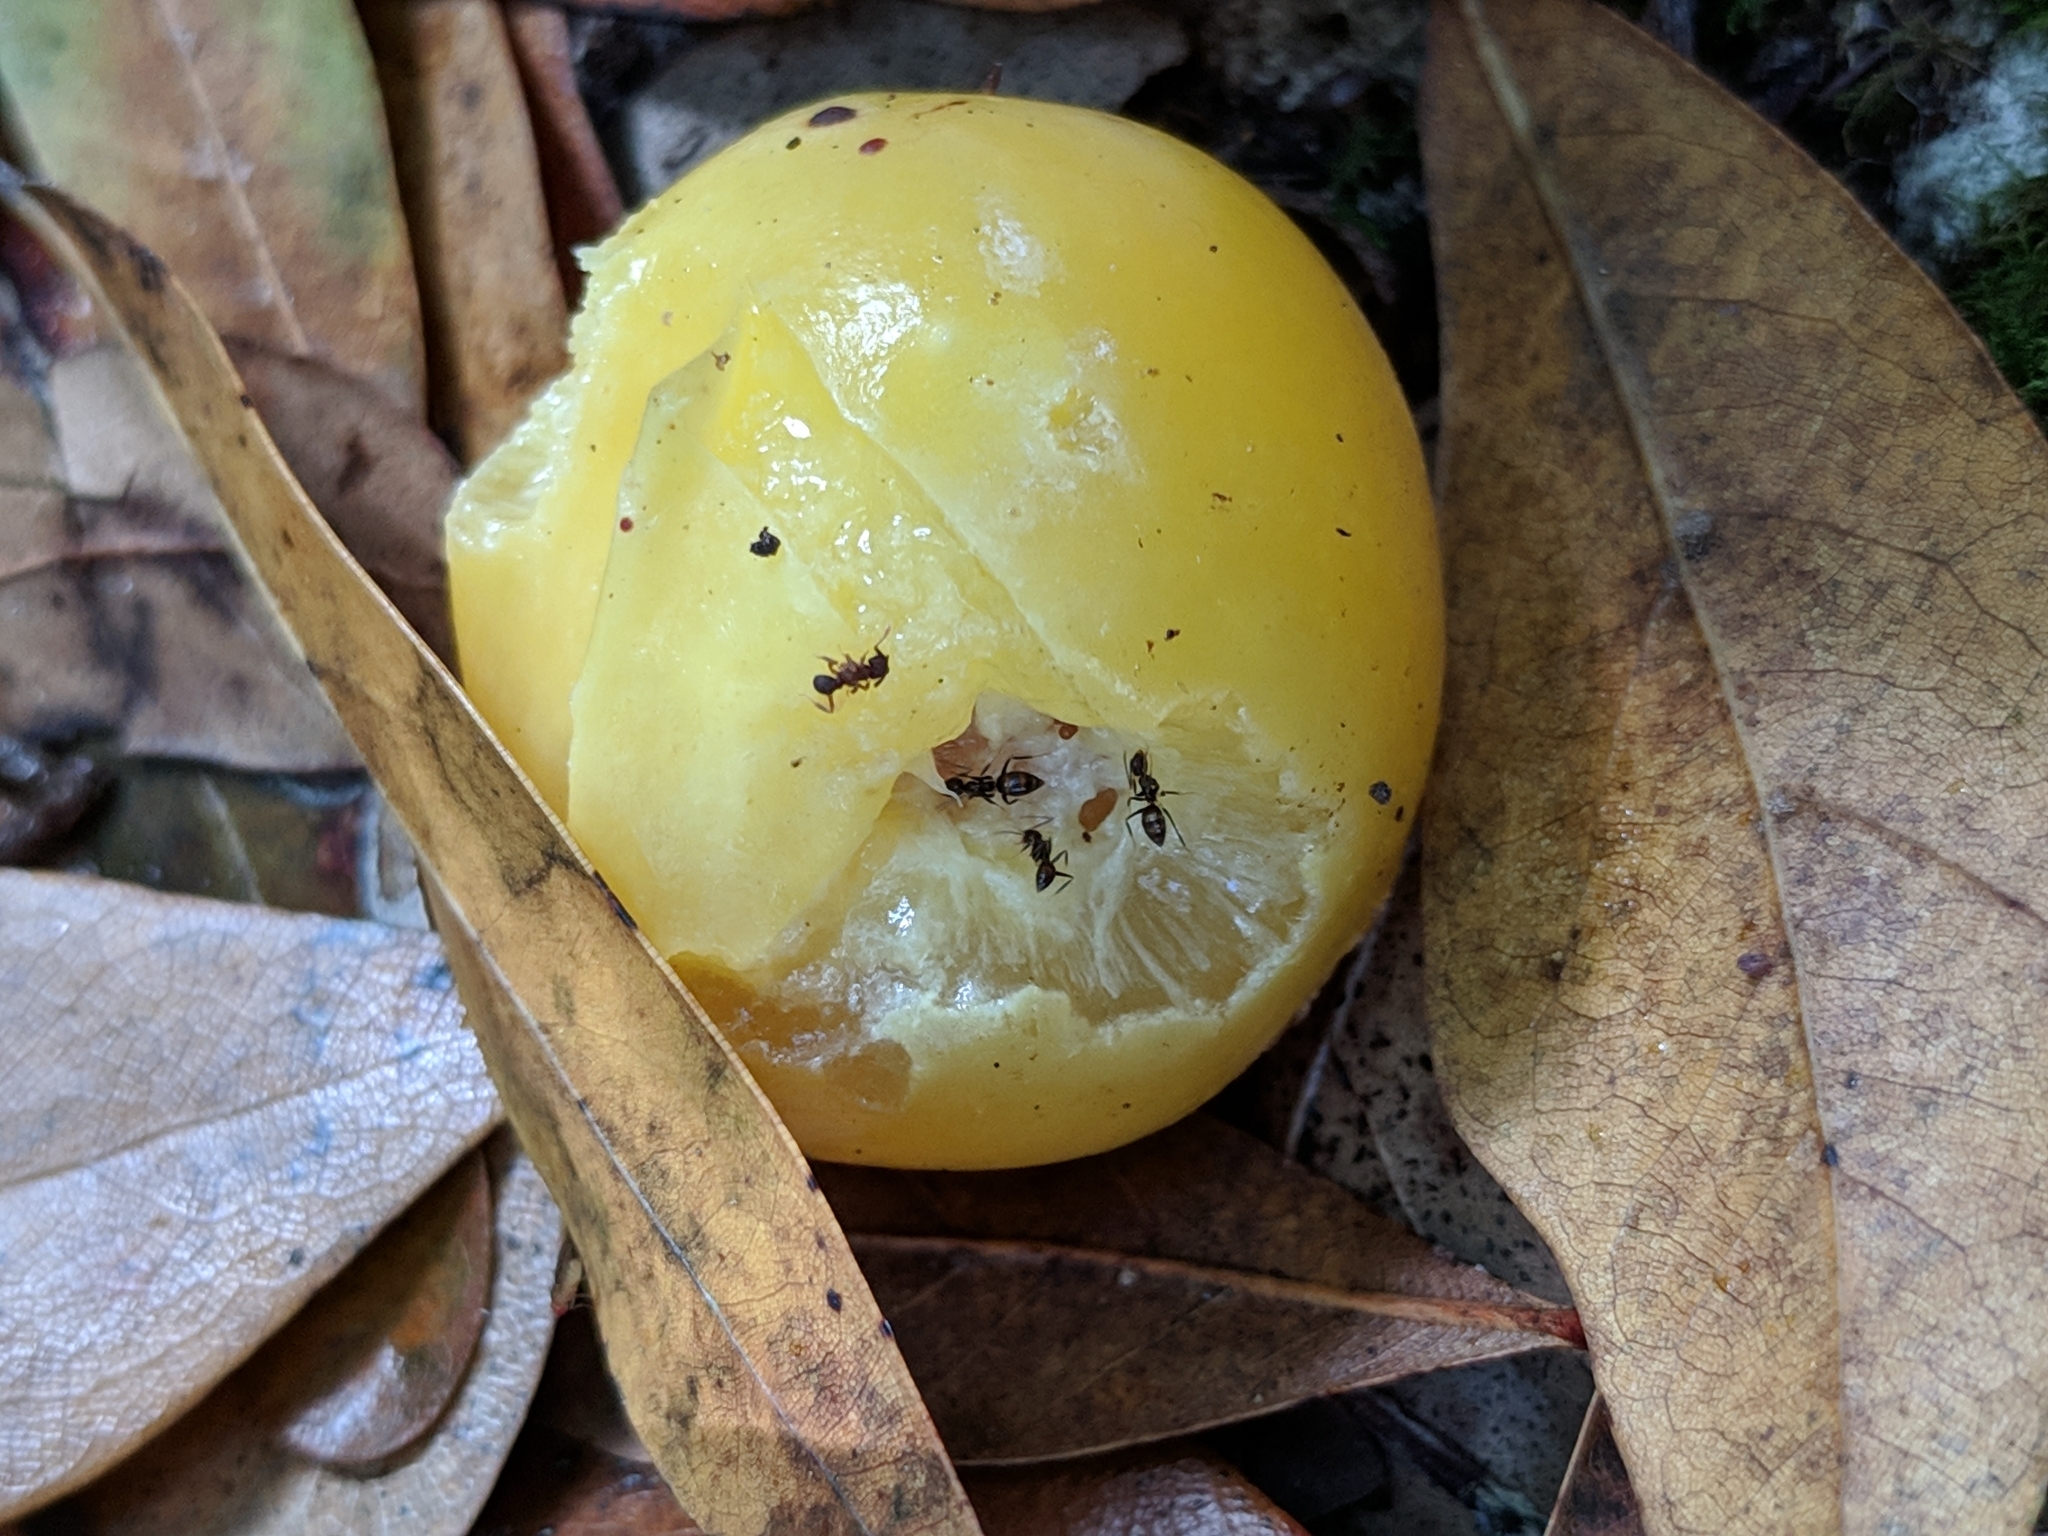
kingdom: Animalia
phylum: Arthropoda
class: Insecta
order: Hymenoptera
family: Formicidae
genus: Nylanderia
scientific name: Nylanderia steinheili
